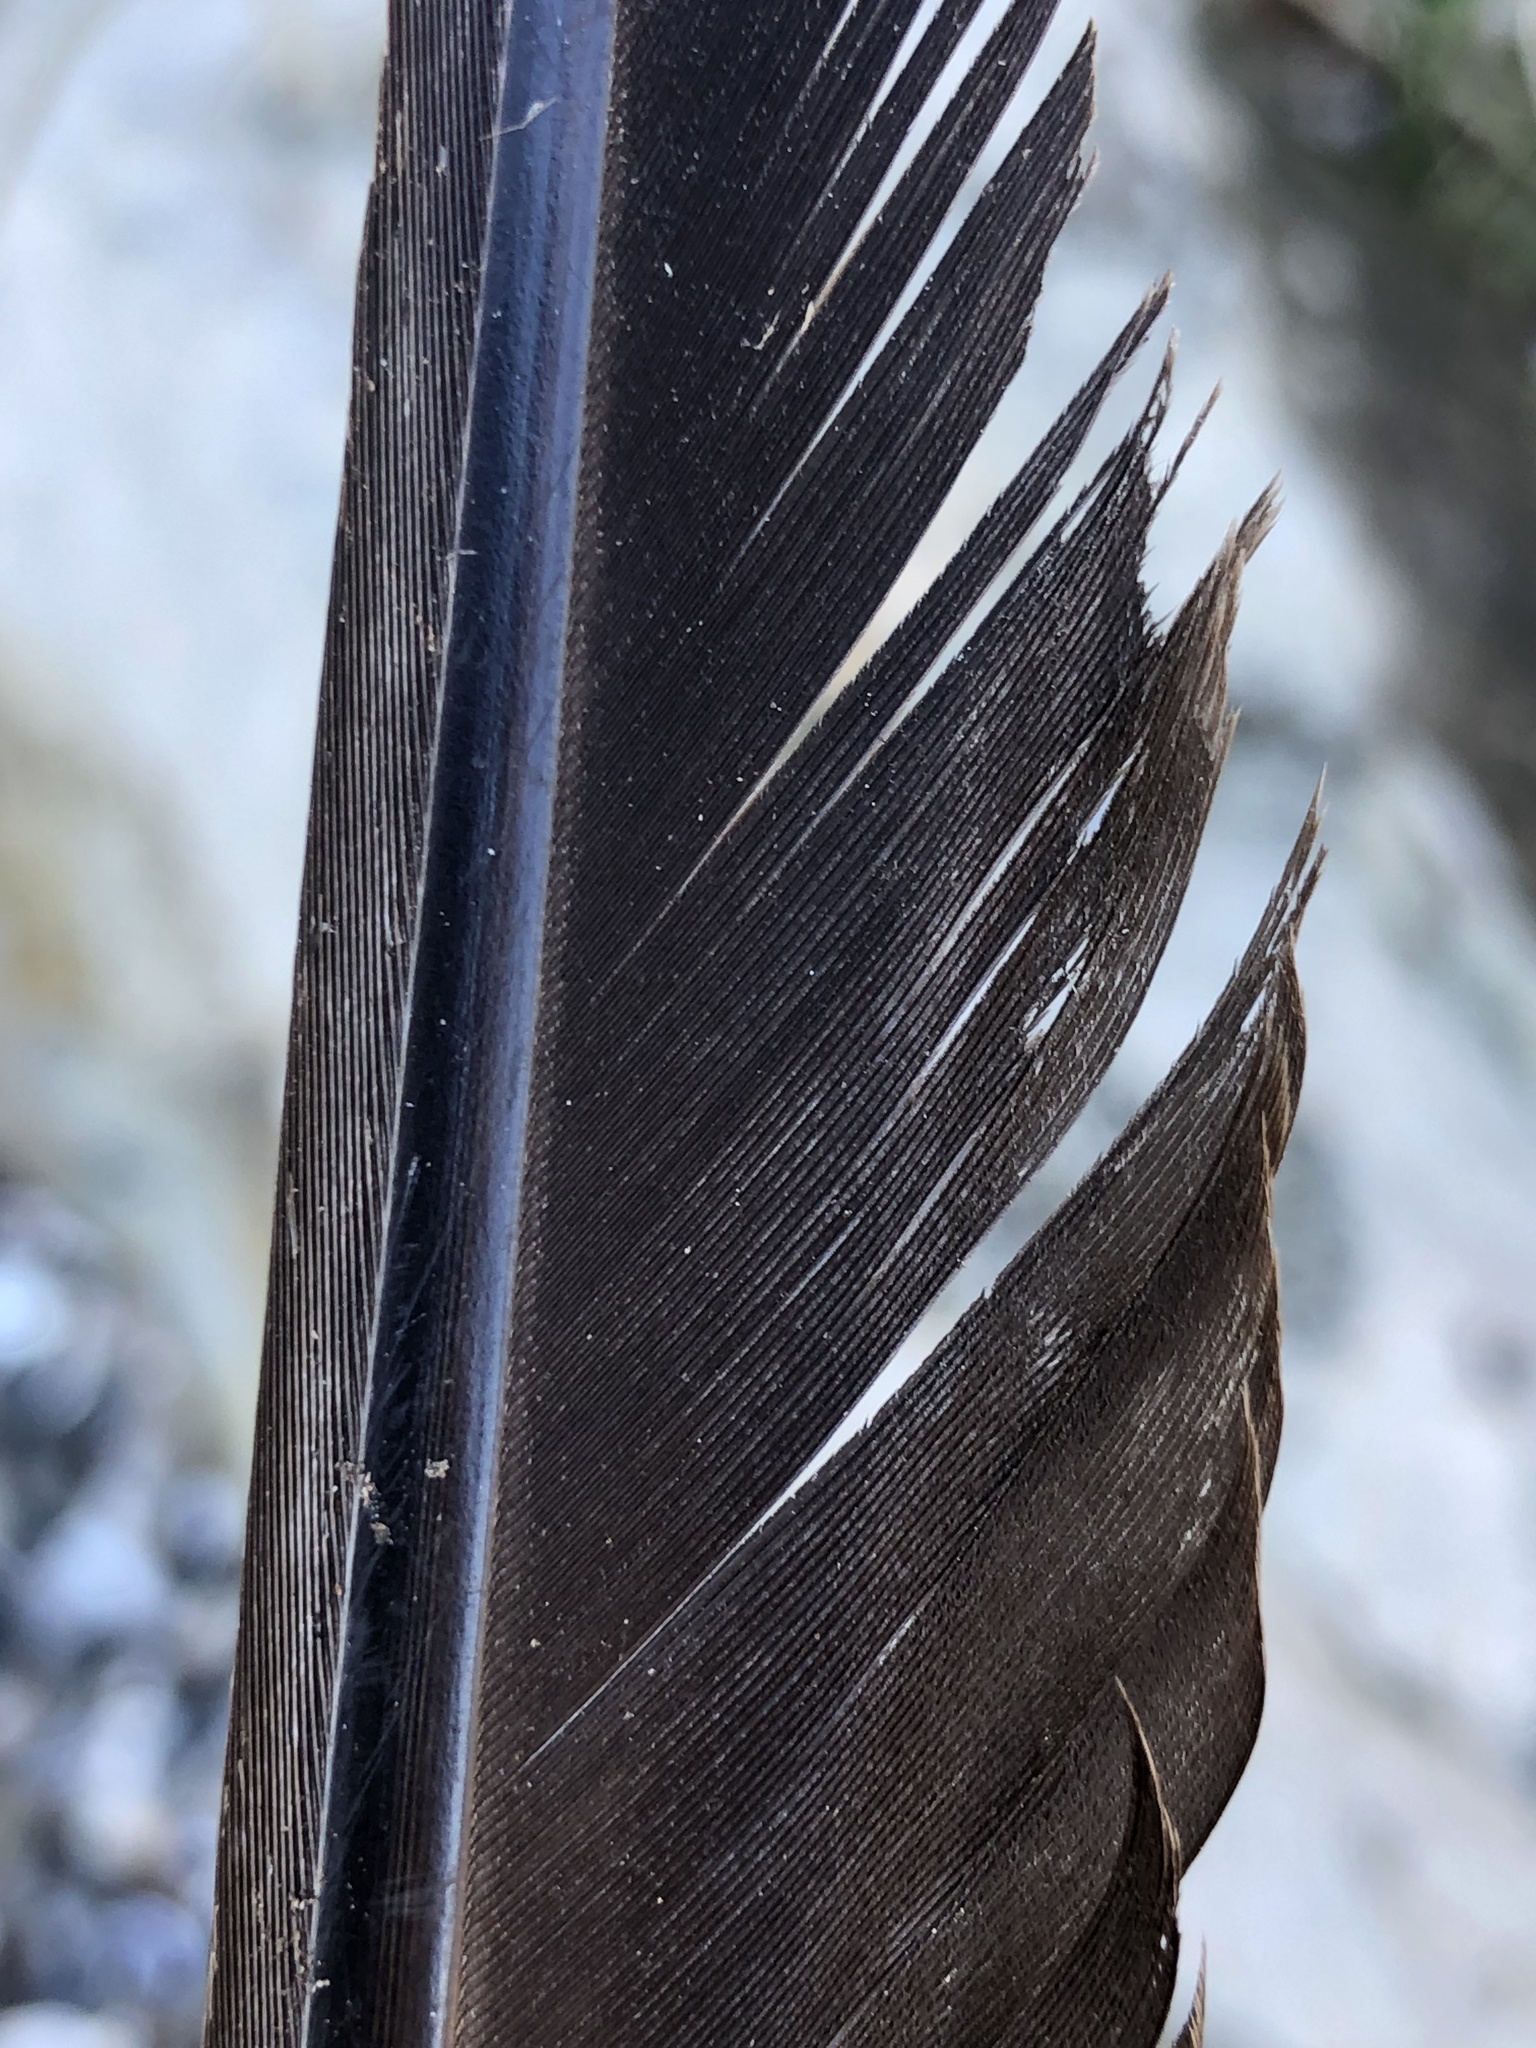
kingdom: Animalia
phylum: Chordata
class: Aves
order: Charadriiformes
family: Laridae
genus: Larus
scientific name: Larus dominicanus
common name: Kelp gull
